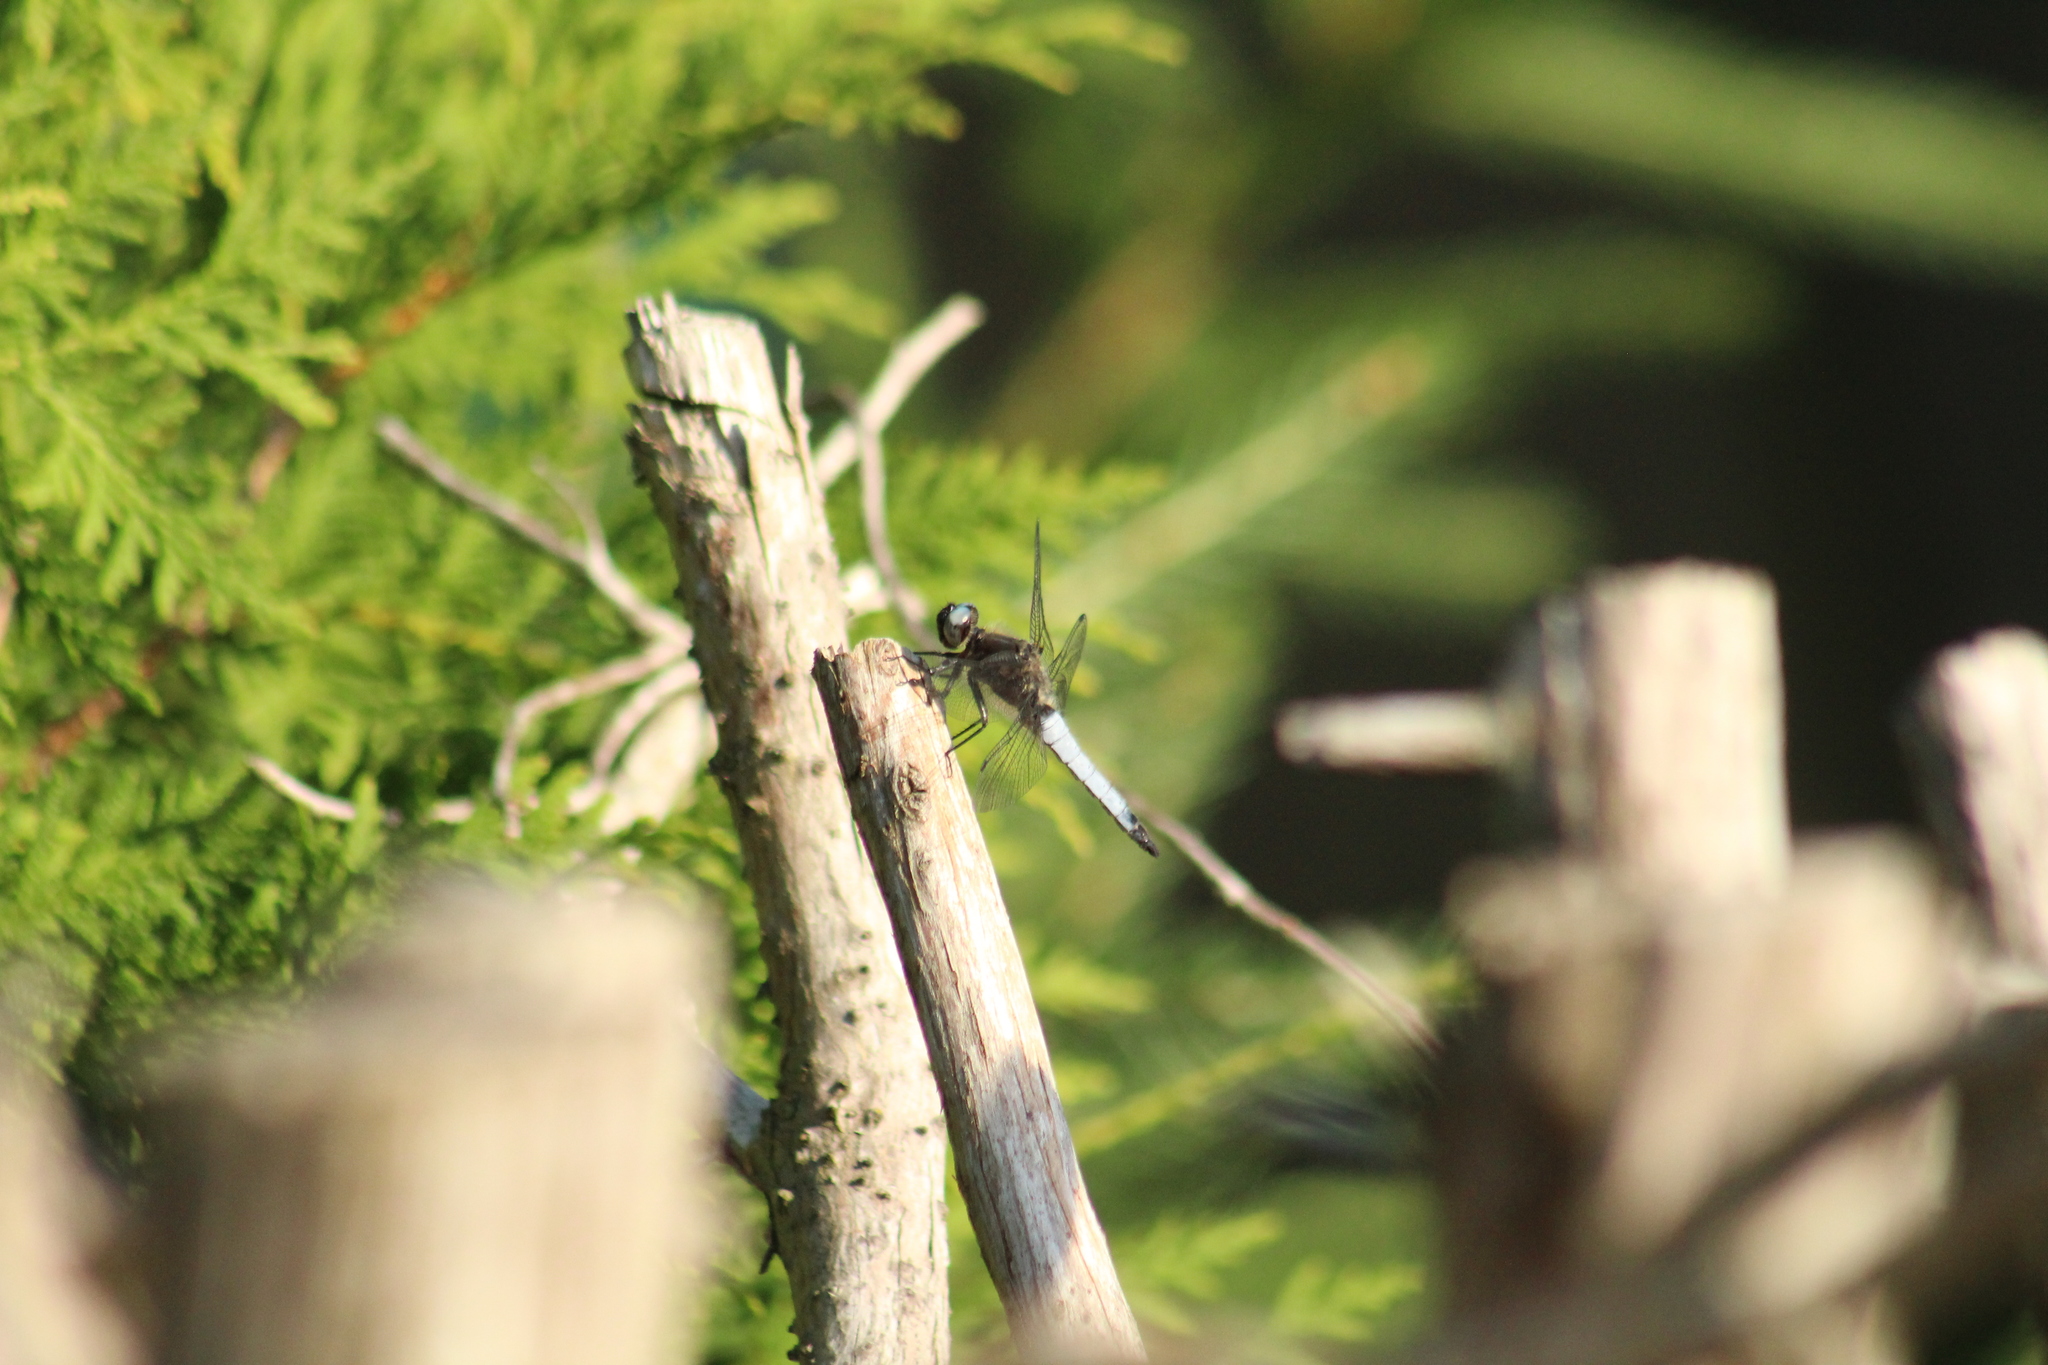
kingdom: Animalia
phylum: Arthropoda
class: Insecta
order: Odonata
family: Libellulidae
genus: Libellula
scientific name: Libellula fulva
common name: Blue chaser
